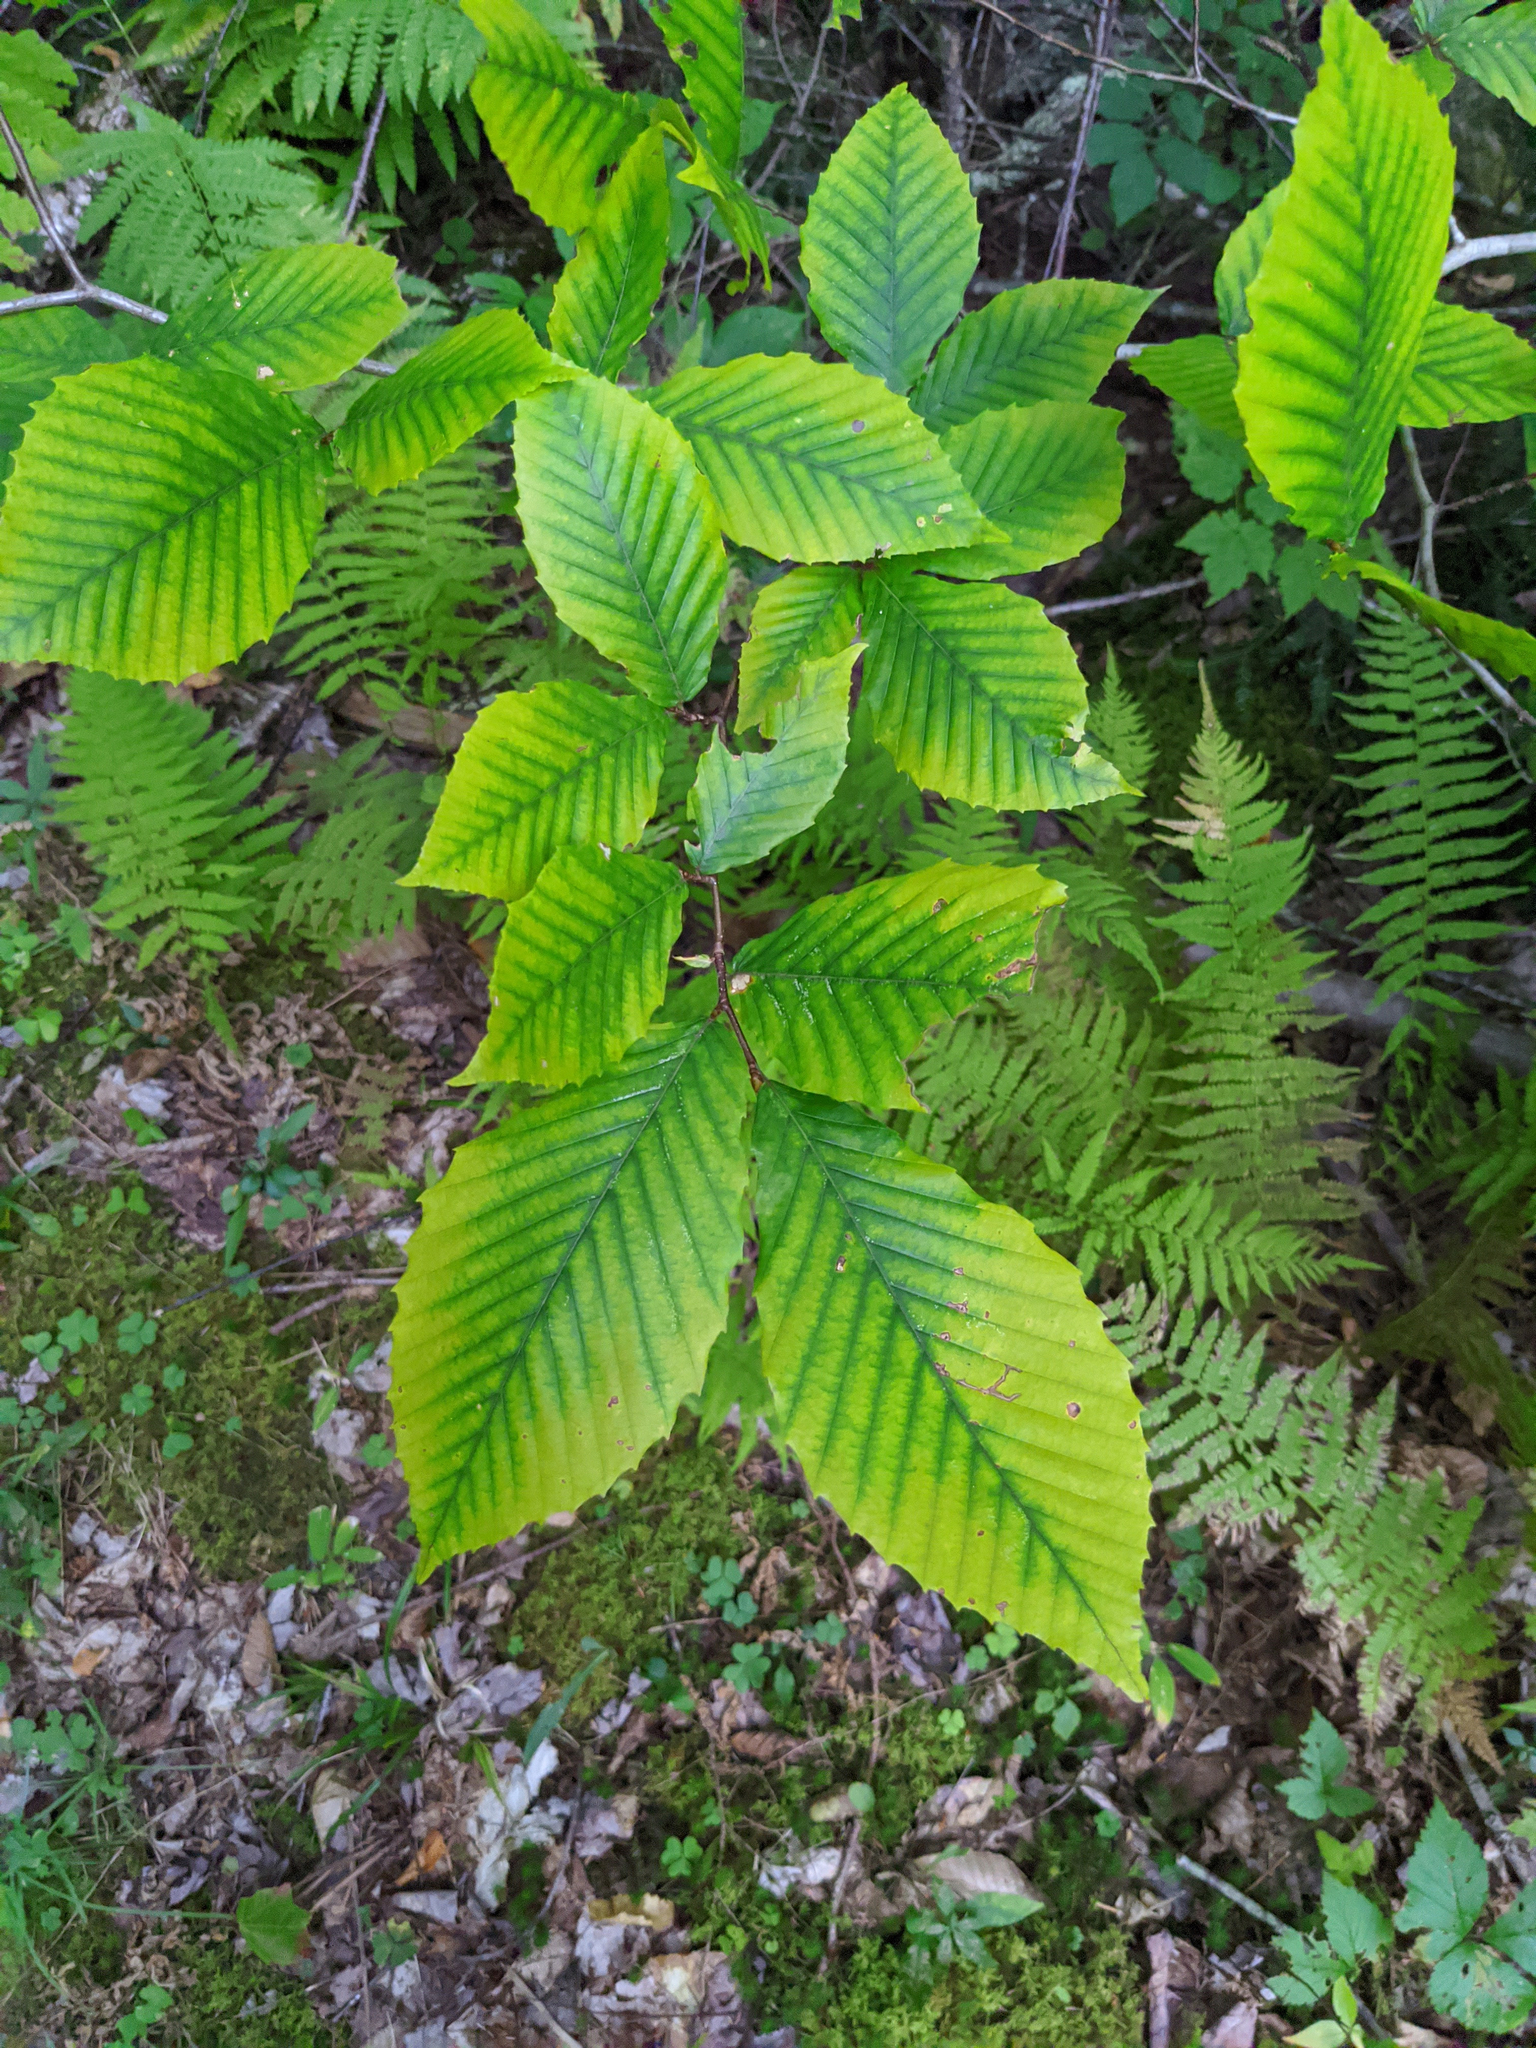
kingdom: Plantae
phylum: Tracheophyta
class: Magnoliopsida
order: Fagales
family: Fagaceae
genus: Fagus
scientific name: Fagus grandifolia
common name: American beech
